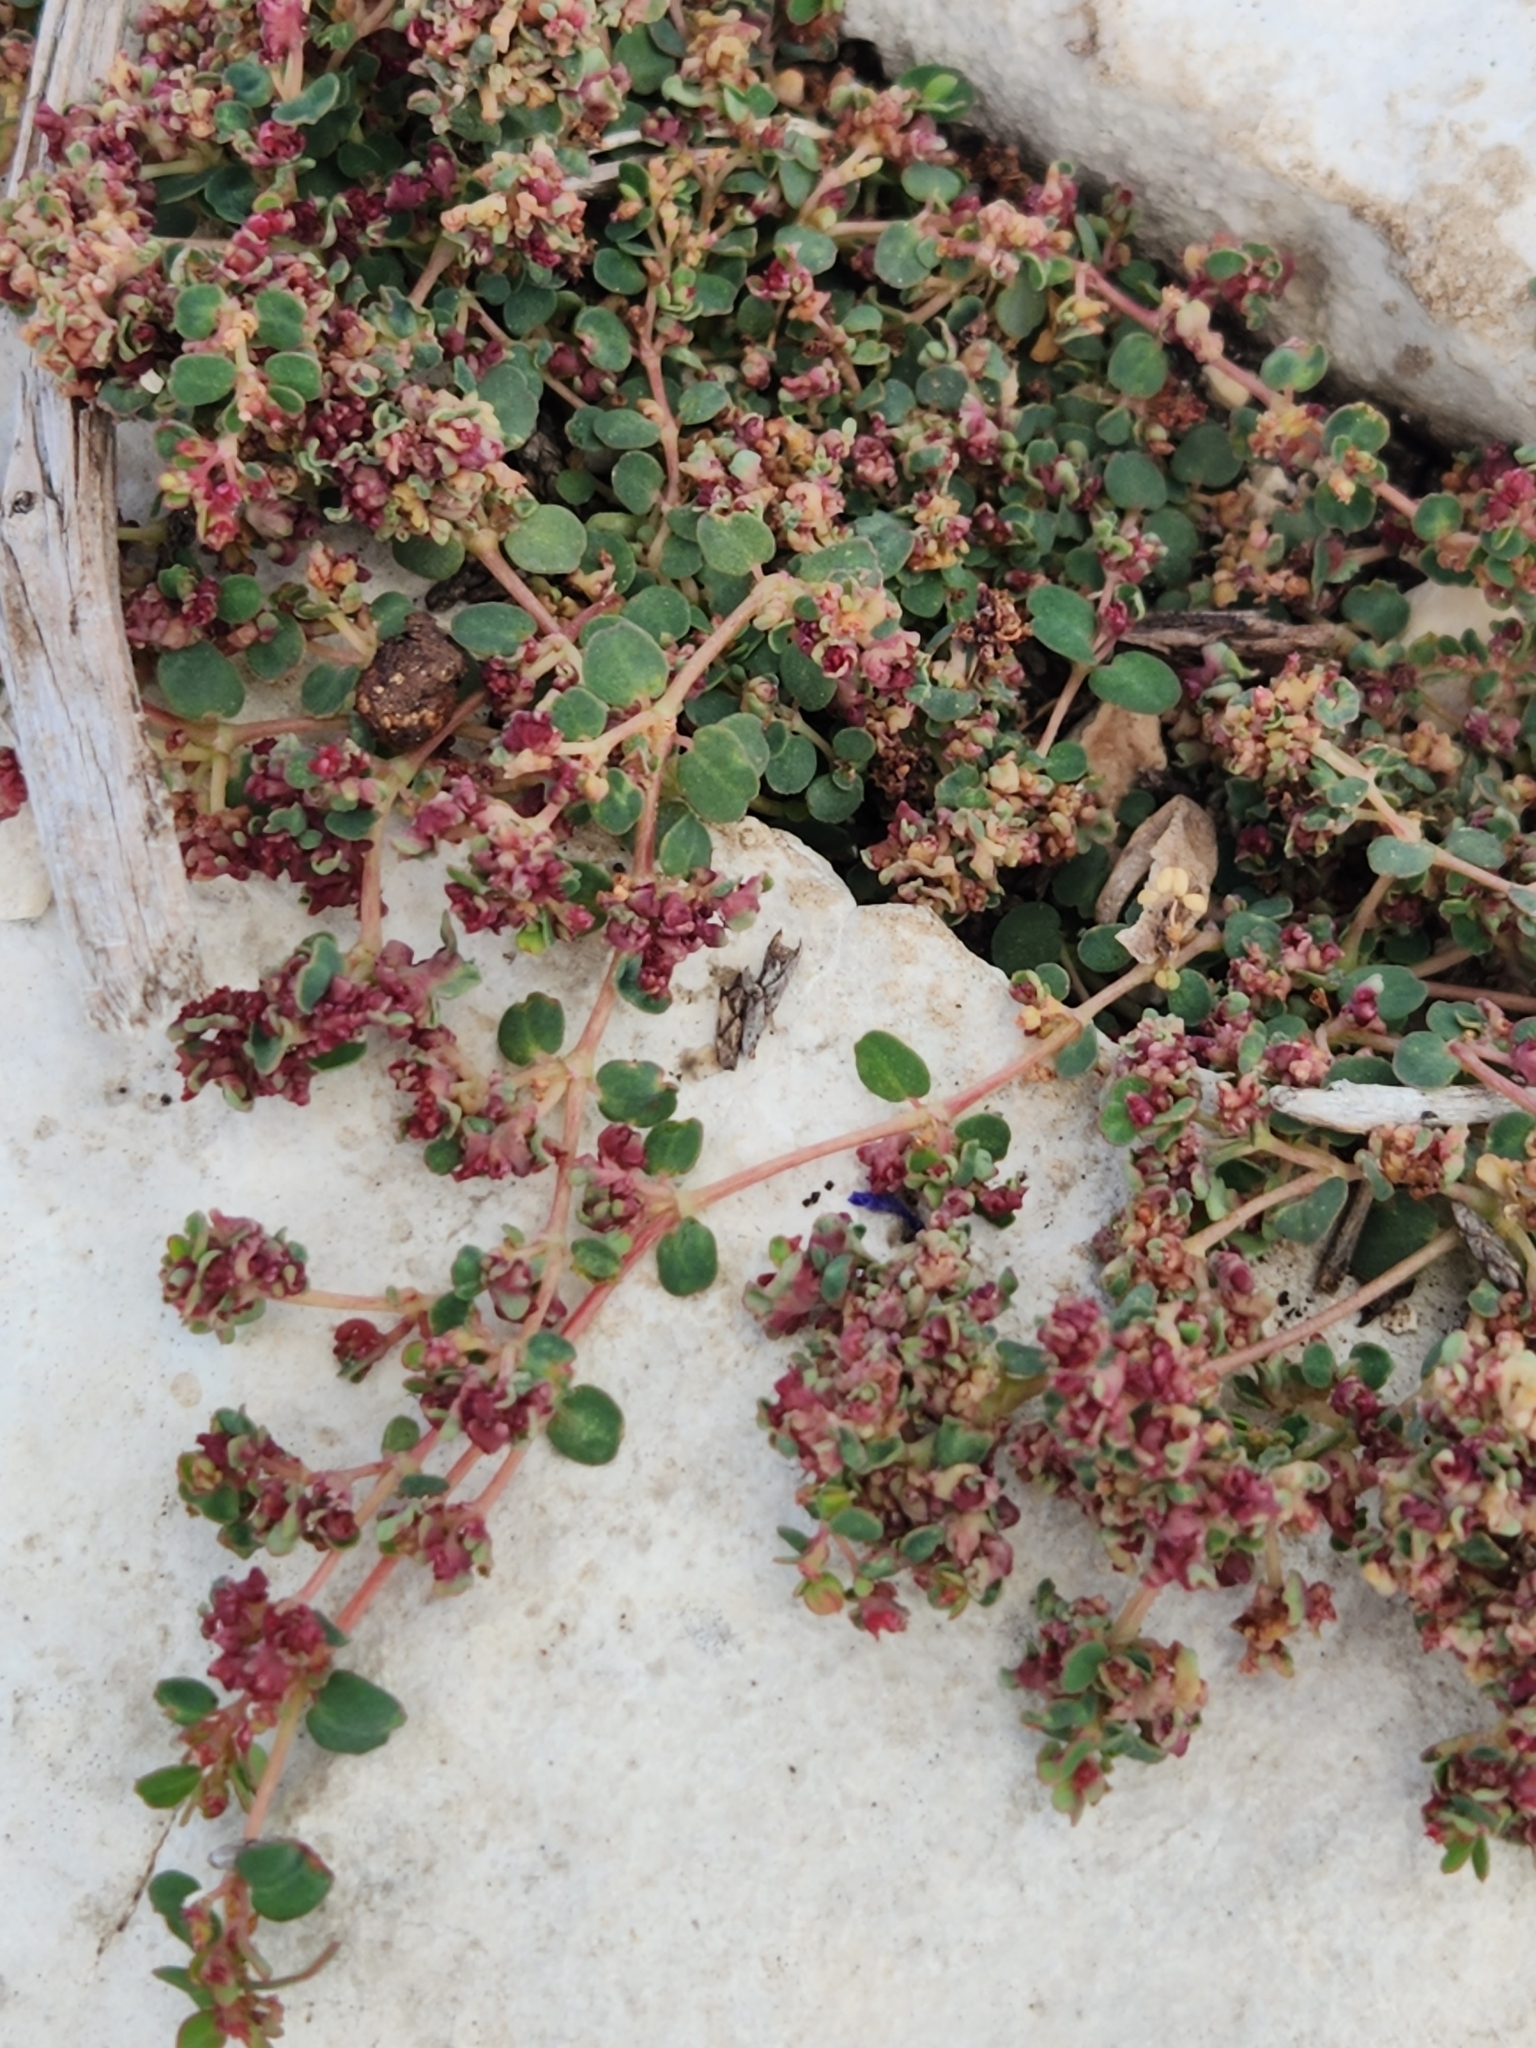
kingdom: Plantae
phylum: Tracheophyta
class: Magnoliopsida
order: Malpighiales
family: Euphorbiaceae
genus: Euphorbia
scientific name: Euphorbia serpens
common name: Matted sandmat
